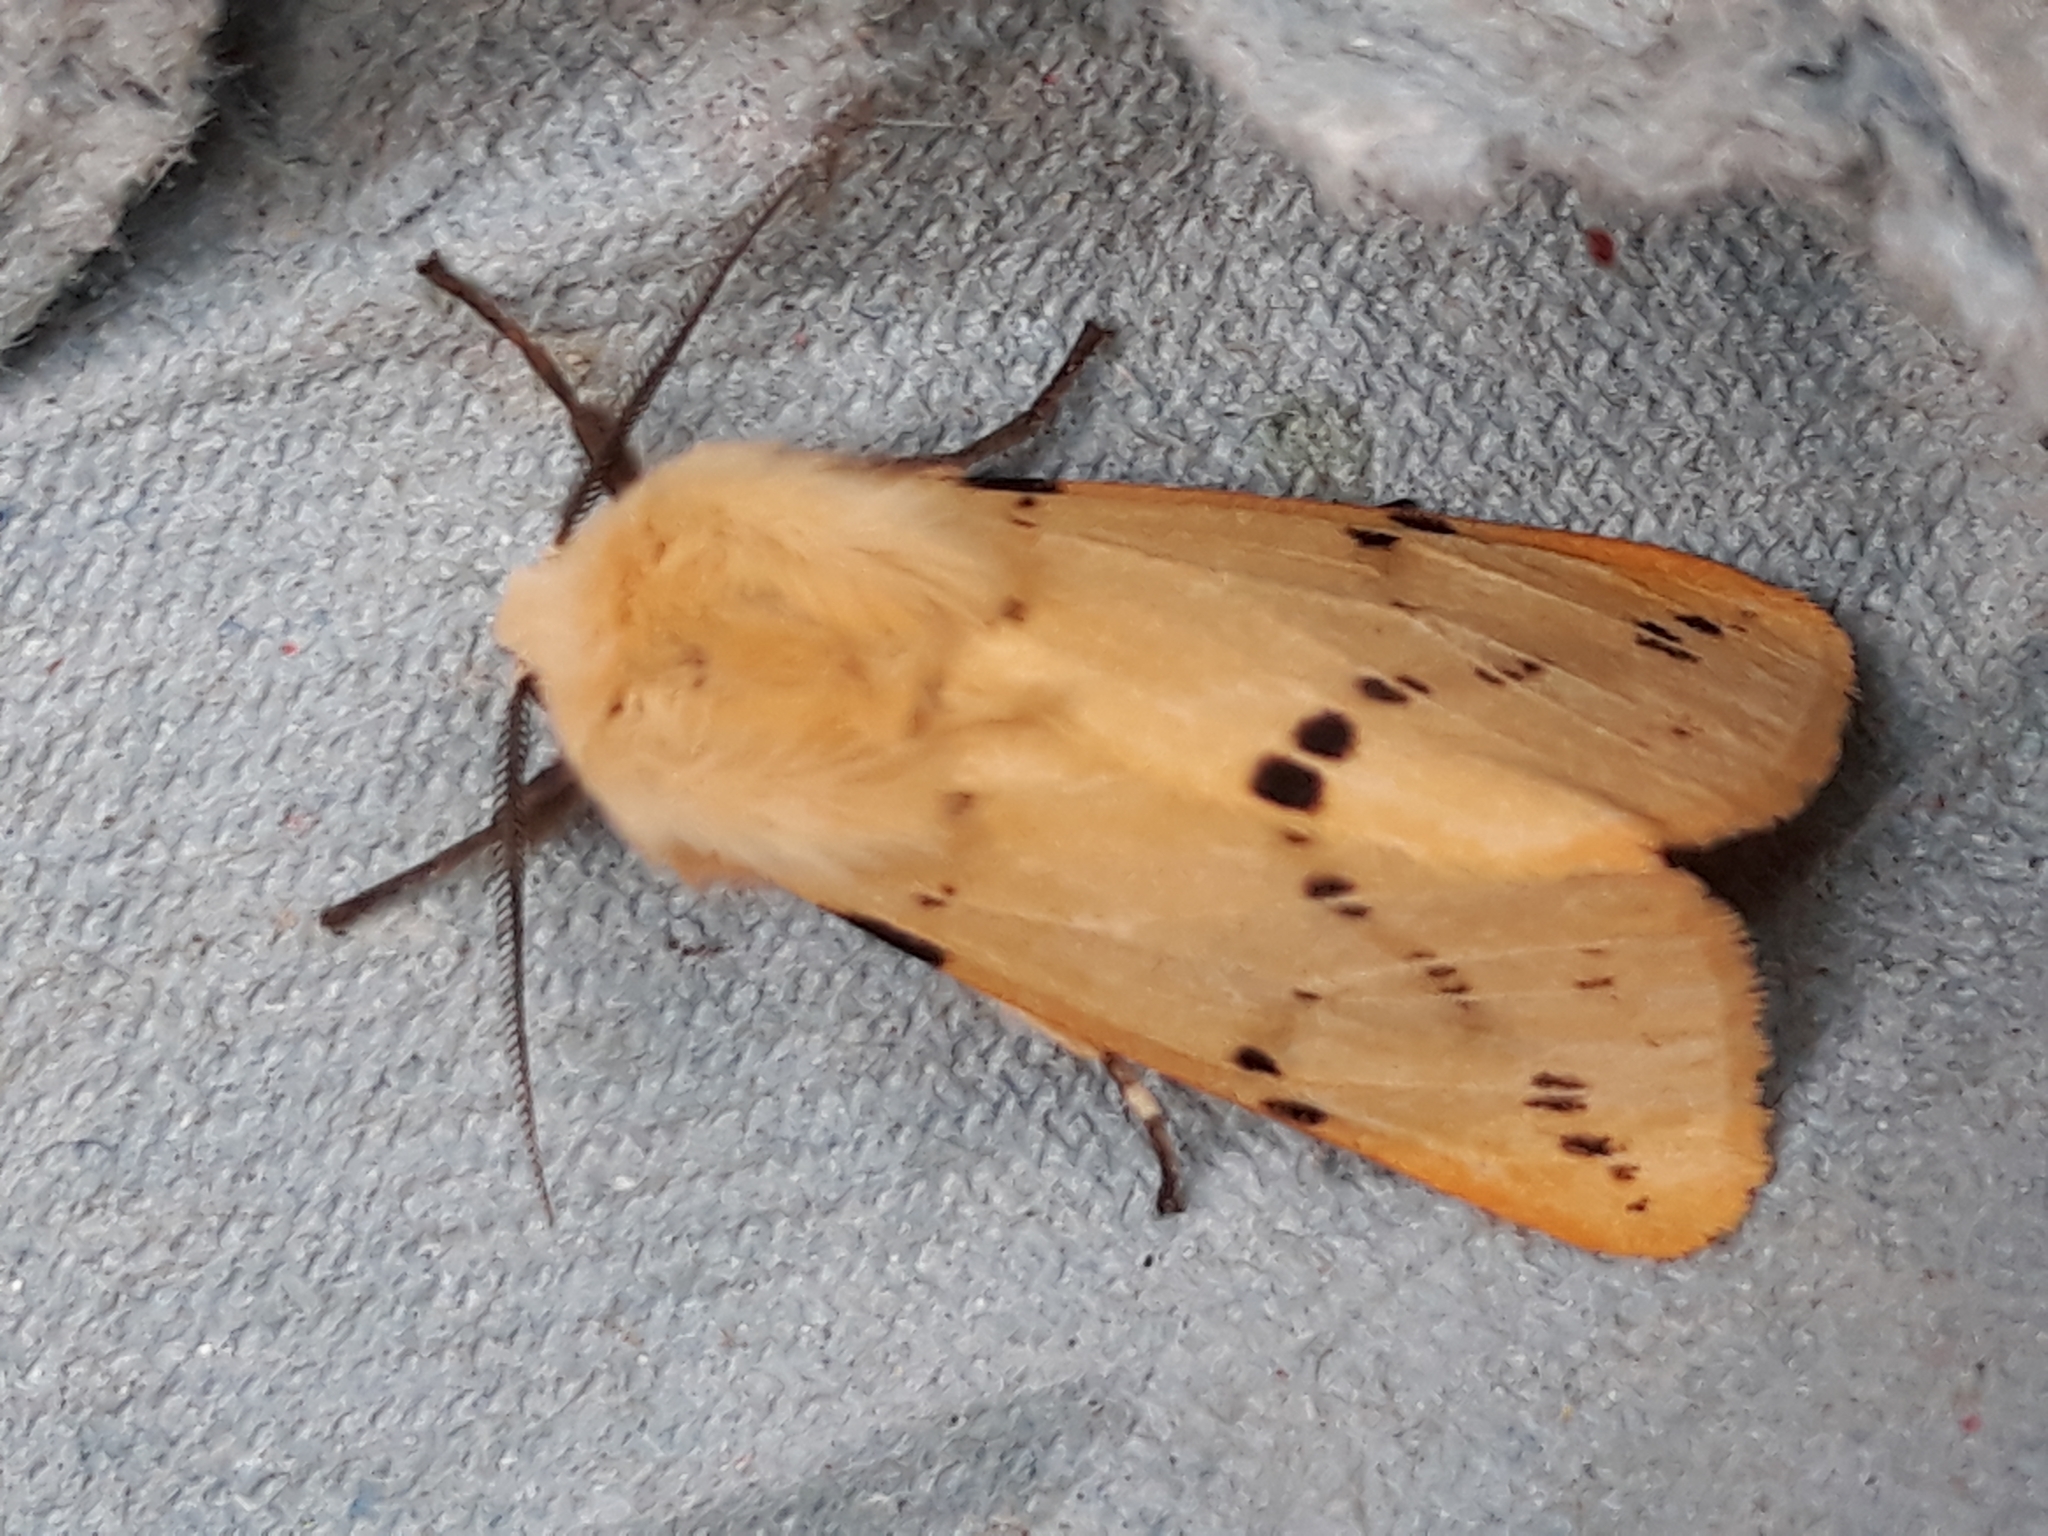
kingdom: Animalia
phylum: Arthropoda
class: Insecta
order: Lepidoptera
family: Erebidae
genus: Spilarctia
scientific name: Spilarctia lutea
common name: Buff ermine
